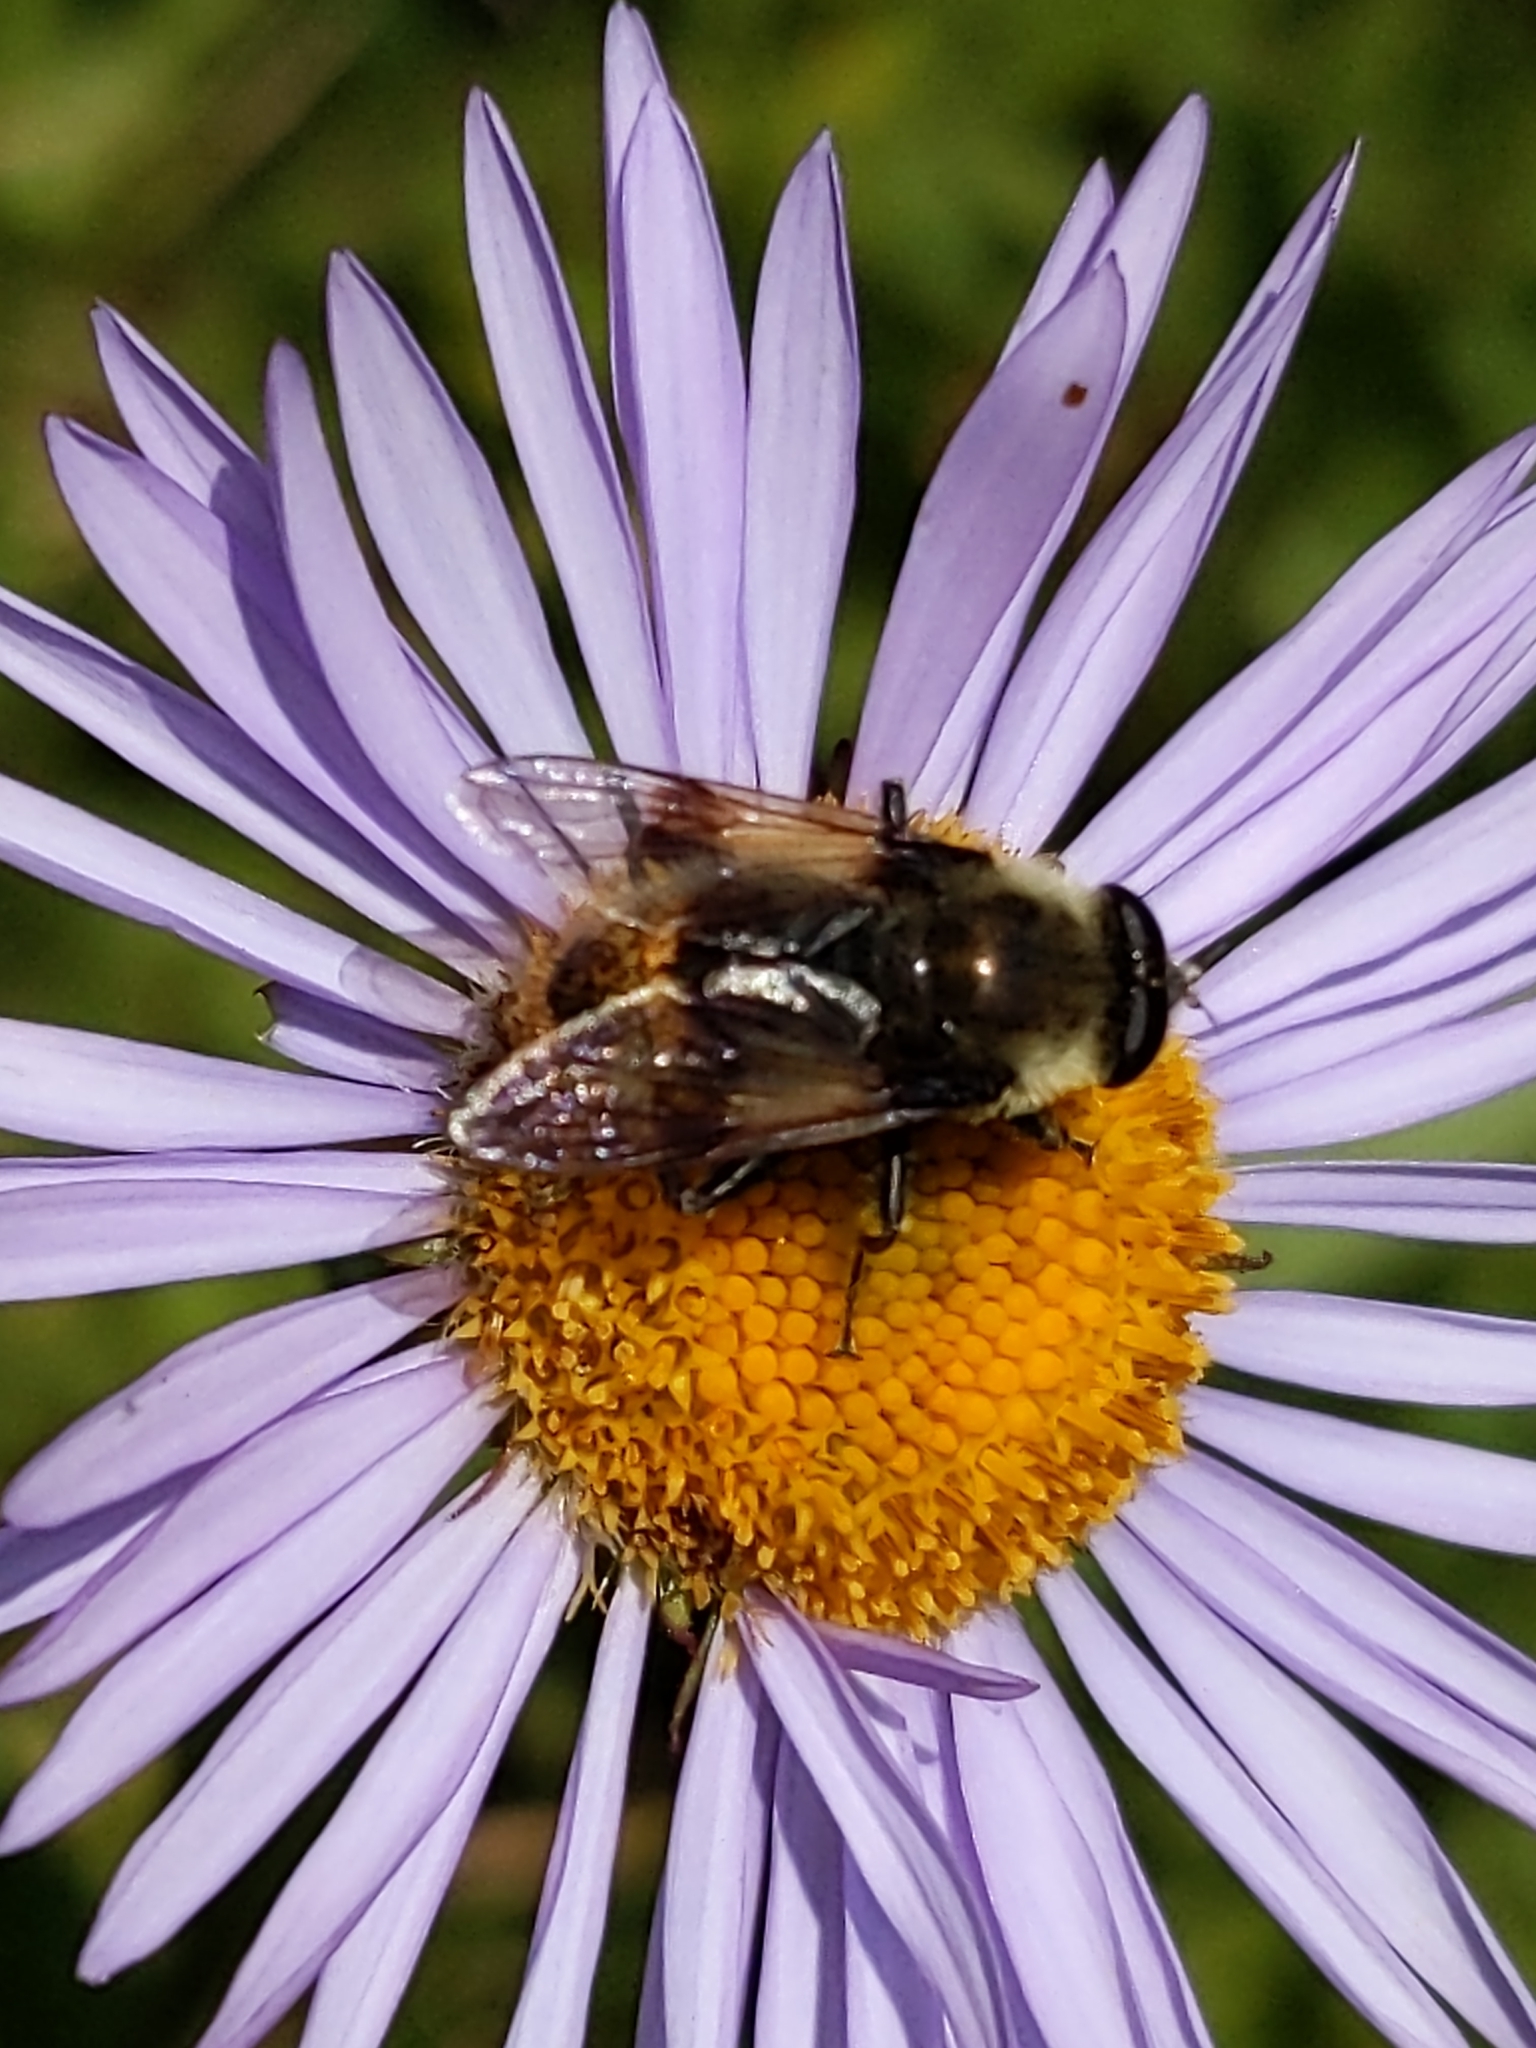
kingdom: Animalia
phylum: Arthropoda
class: Insecta
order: Diptera
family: Syrphidae
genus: Sericomyia
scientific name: Sericomyia flagrans
